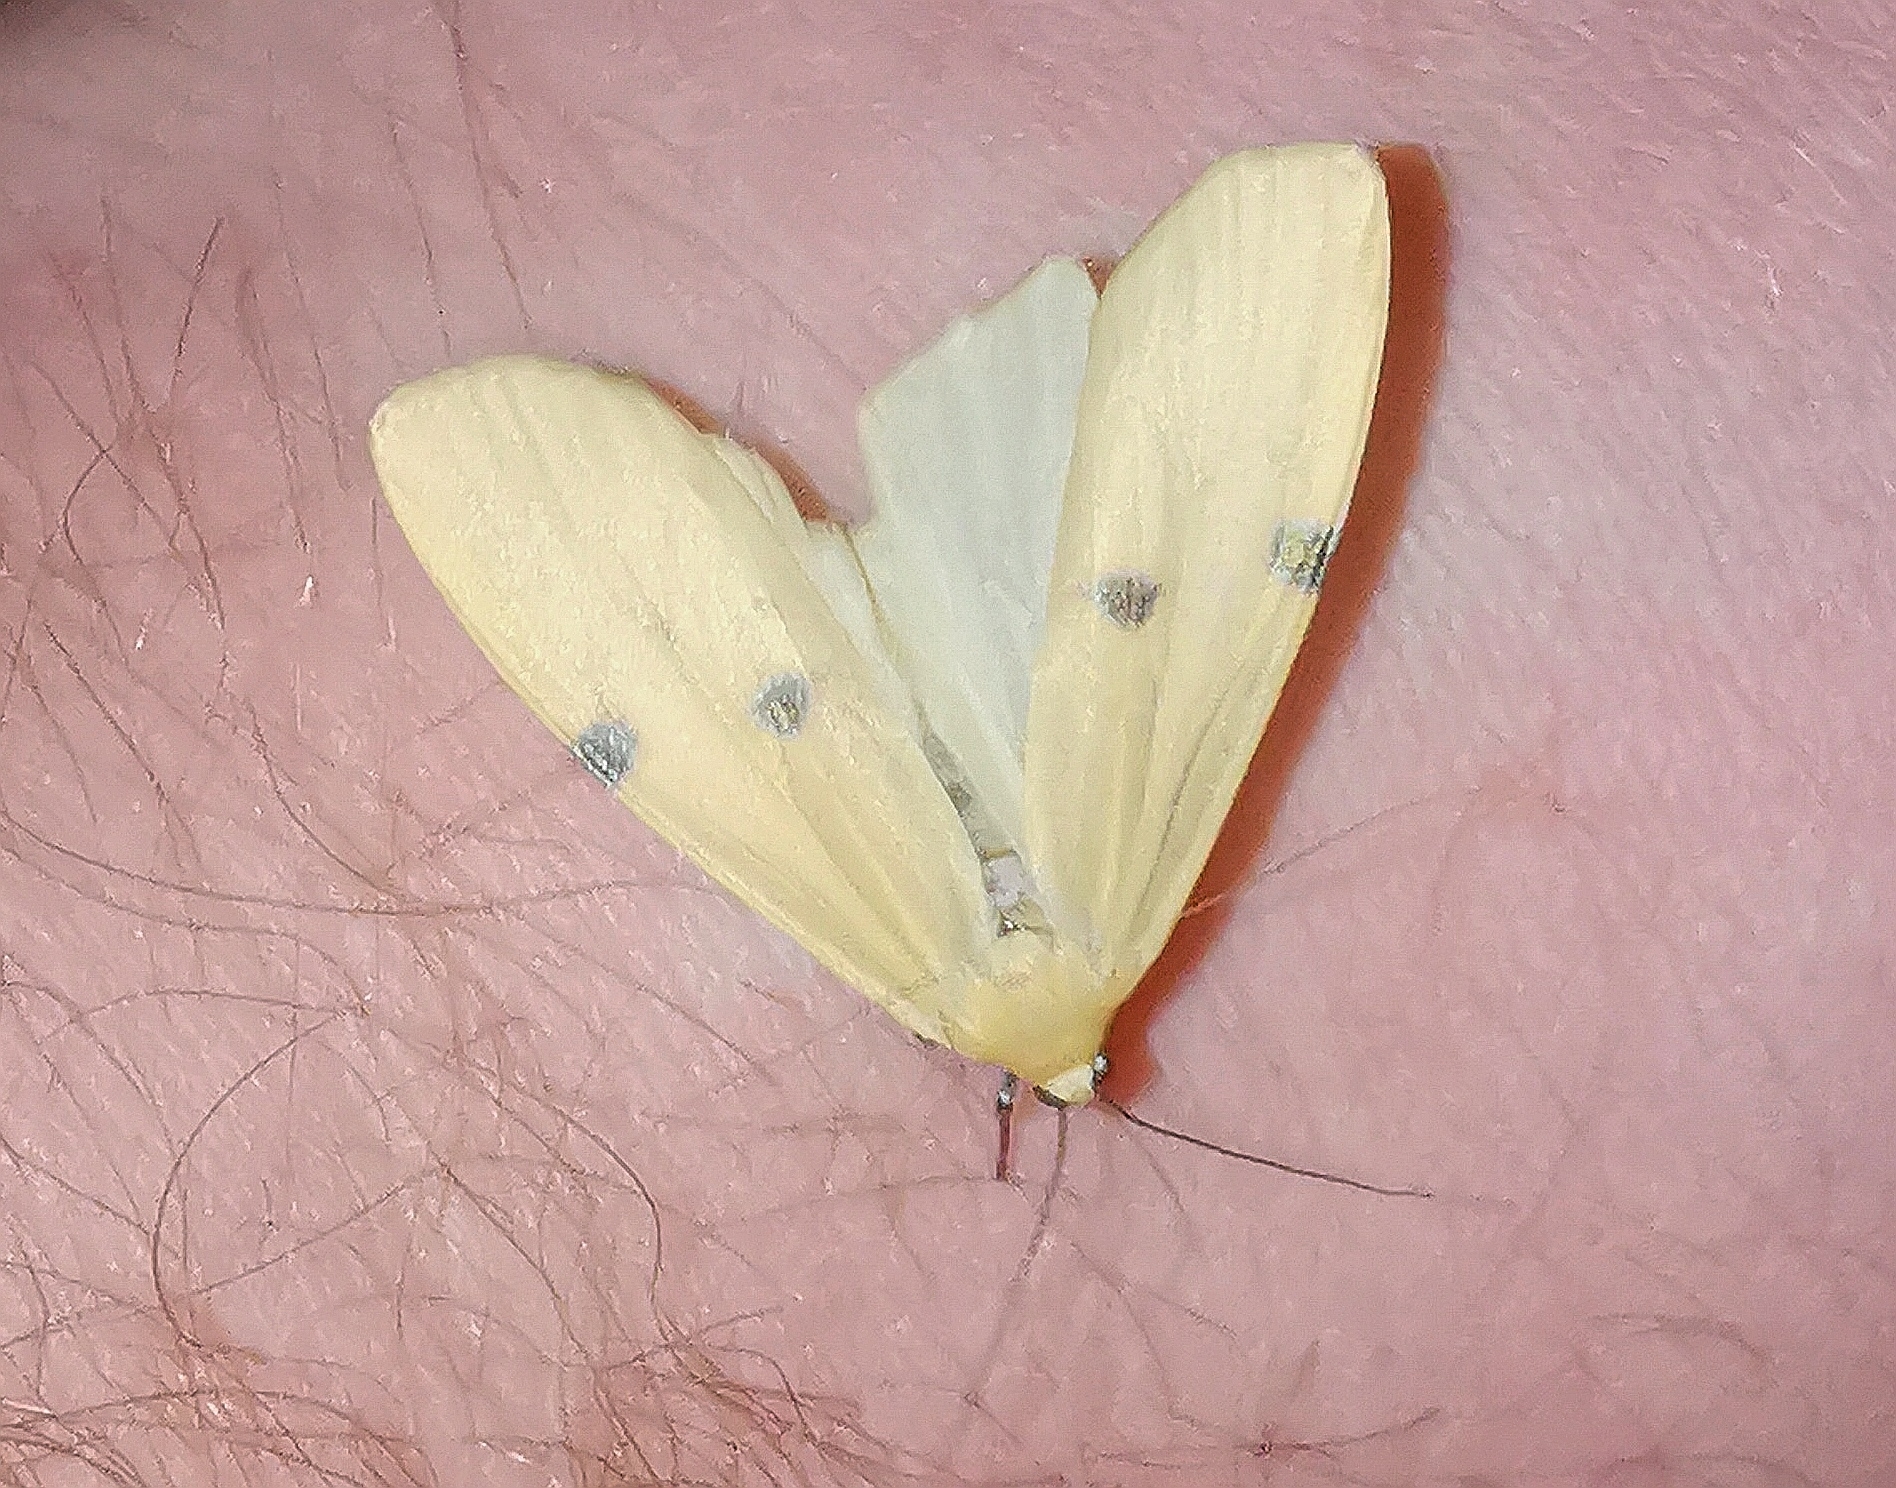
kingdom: Animalia
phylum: Arthropoda
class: Insecta
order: Lepidoptera
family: Erebidae
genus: Lithosia
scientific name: Lithosia quadra
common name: Four-spotted footman
